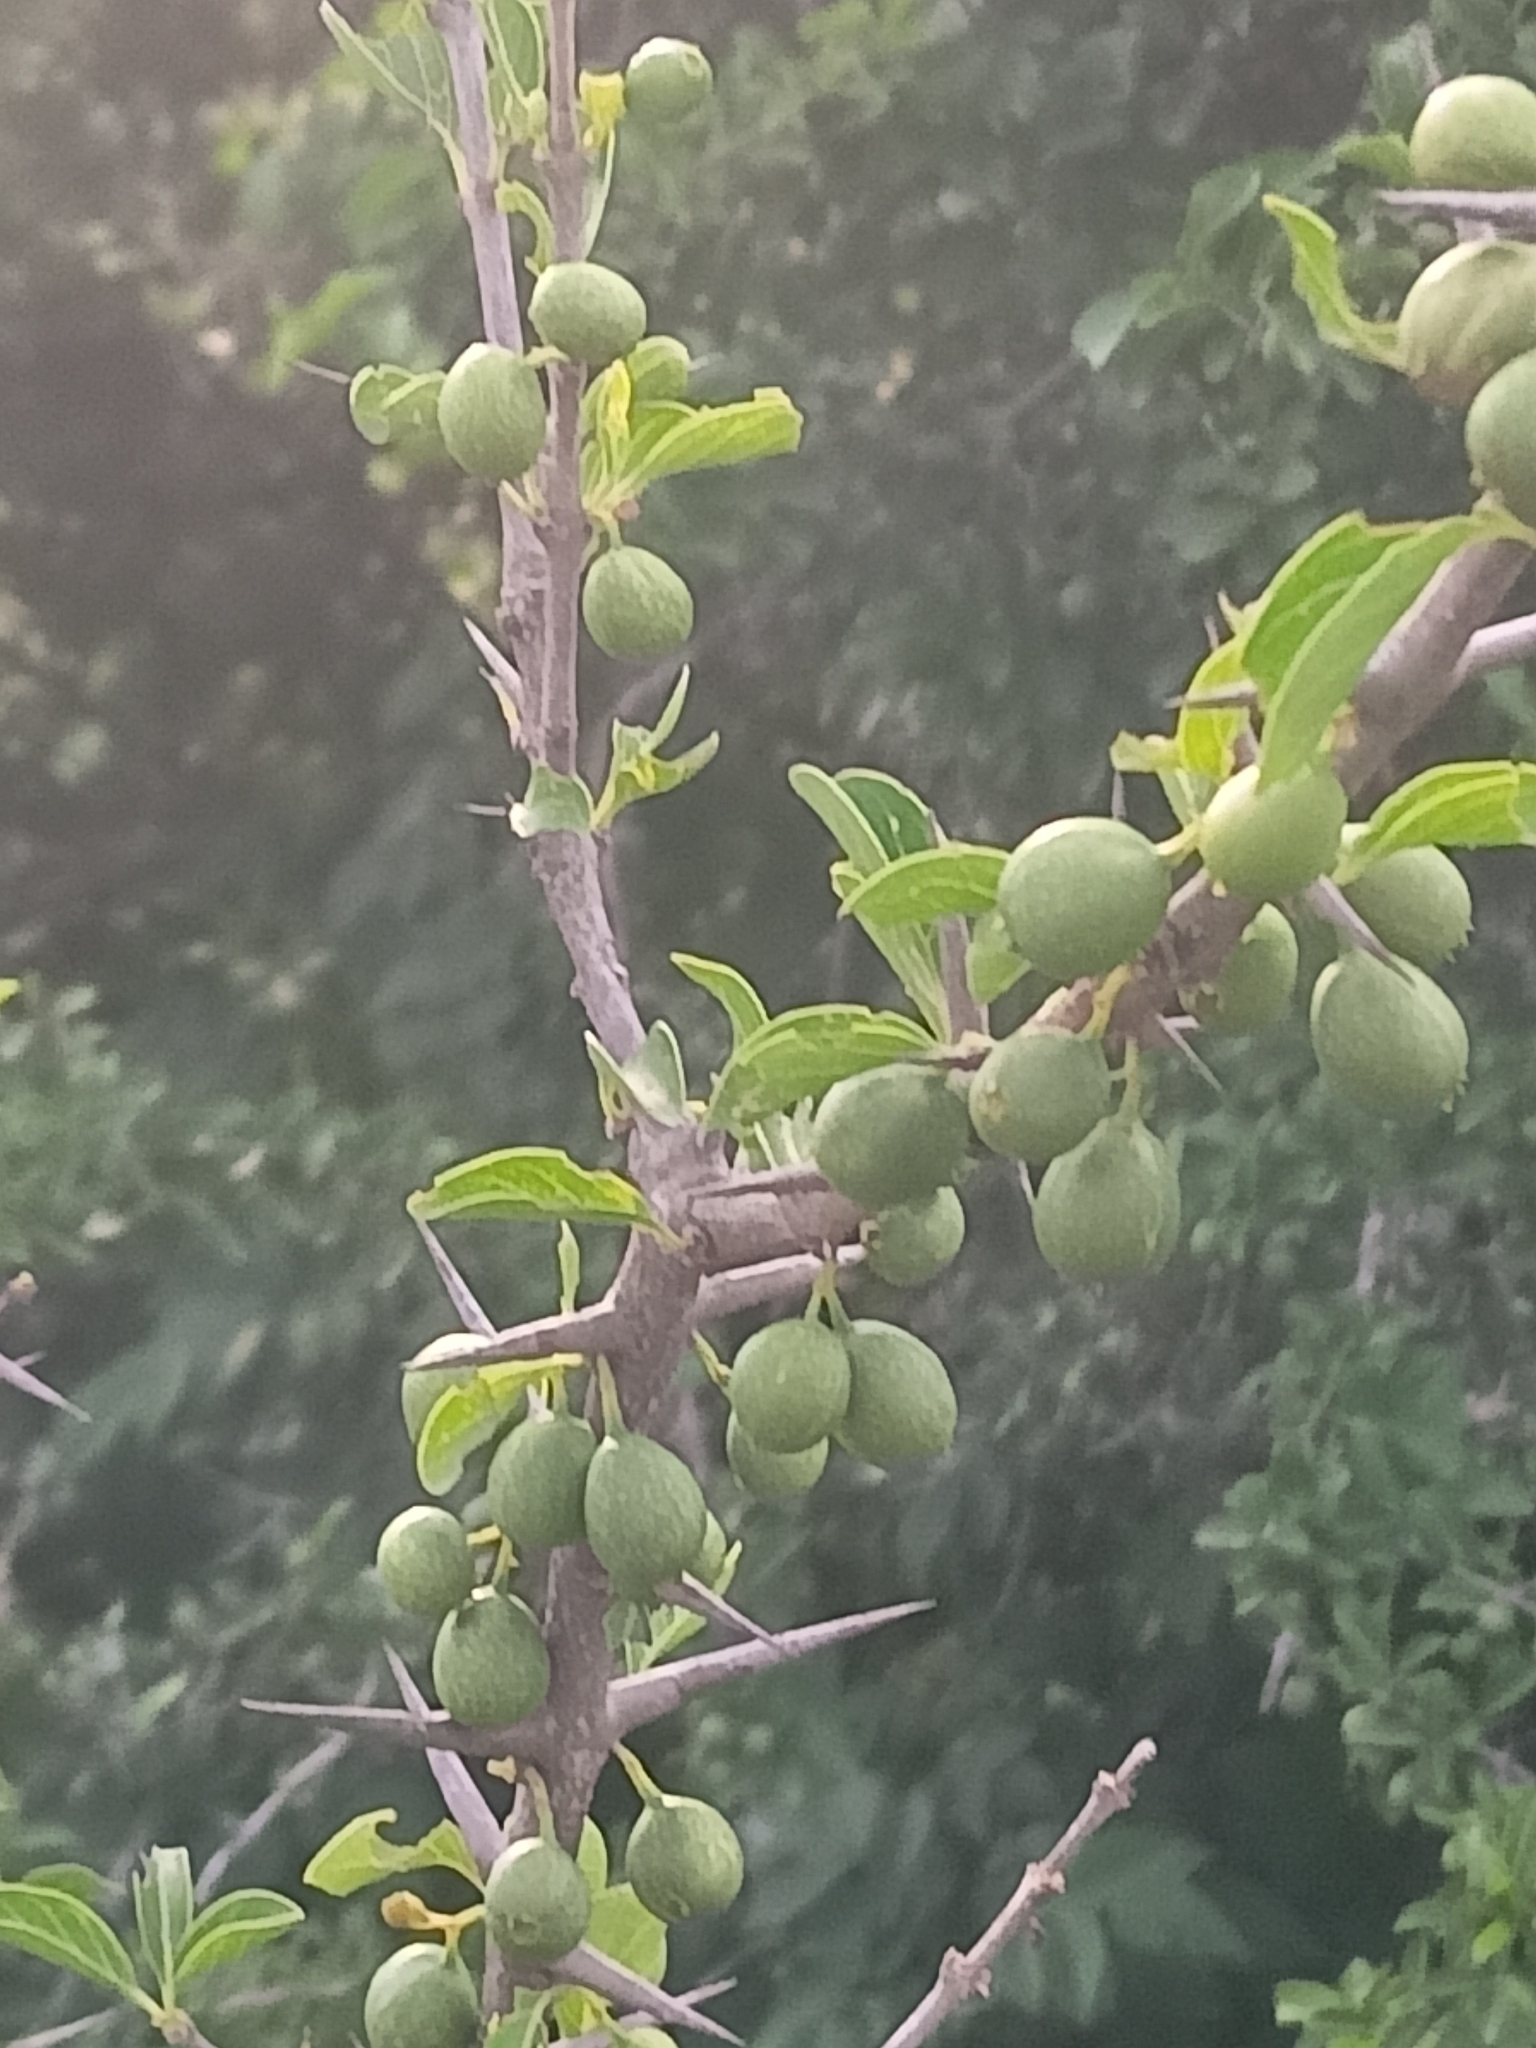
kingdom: Plantae
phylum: Tracheophyta
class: Magnoliopsida
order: Gentianales
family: Rubiaceae
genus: Canthium
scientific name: Canthium coromandelicum
